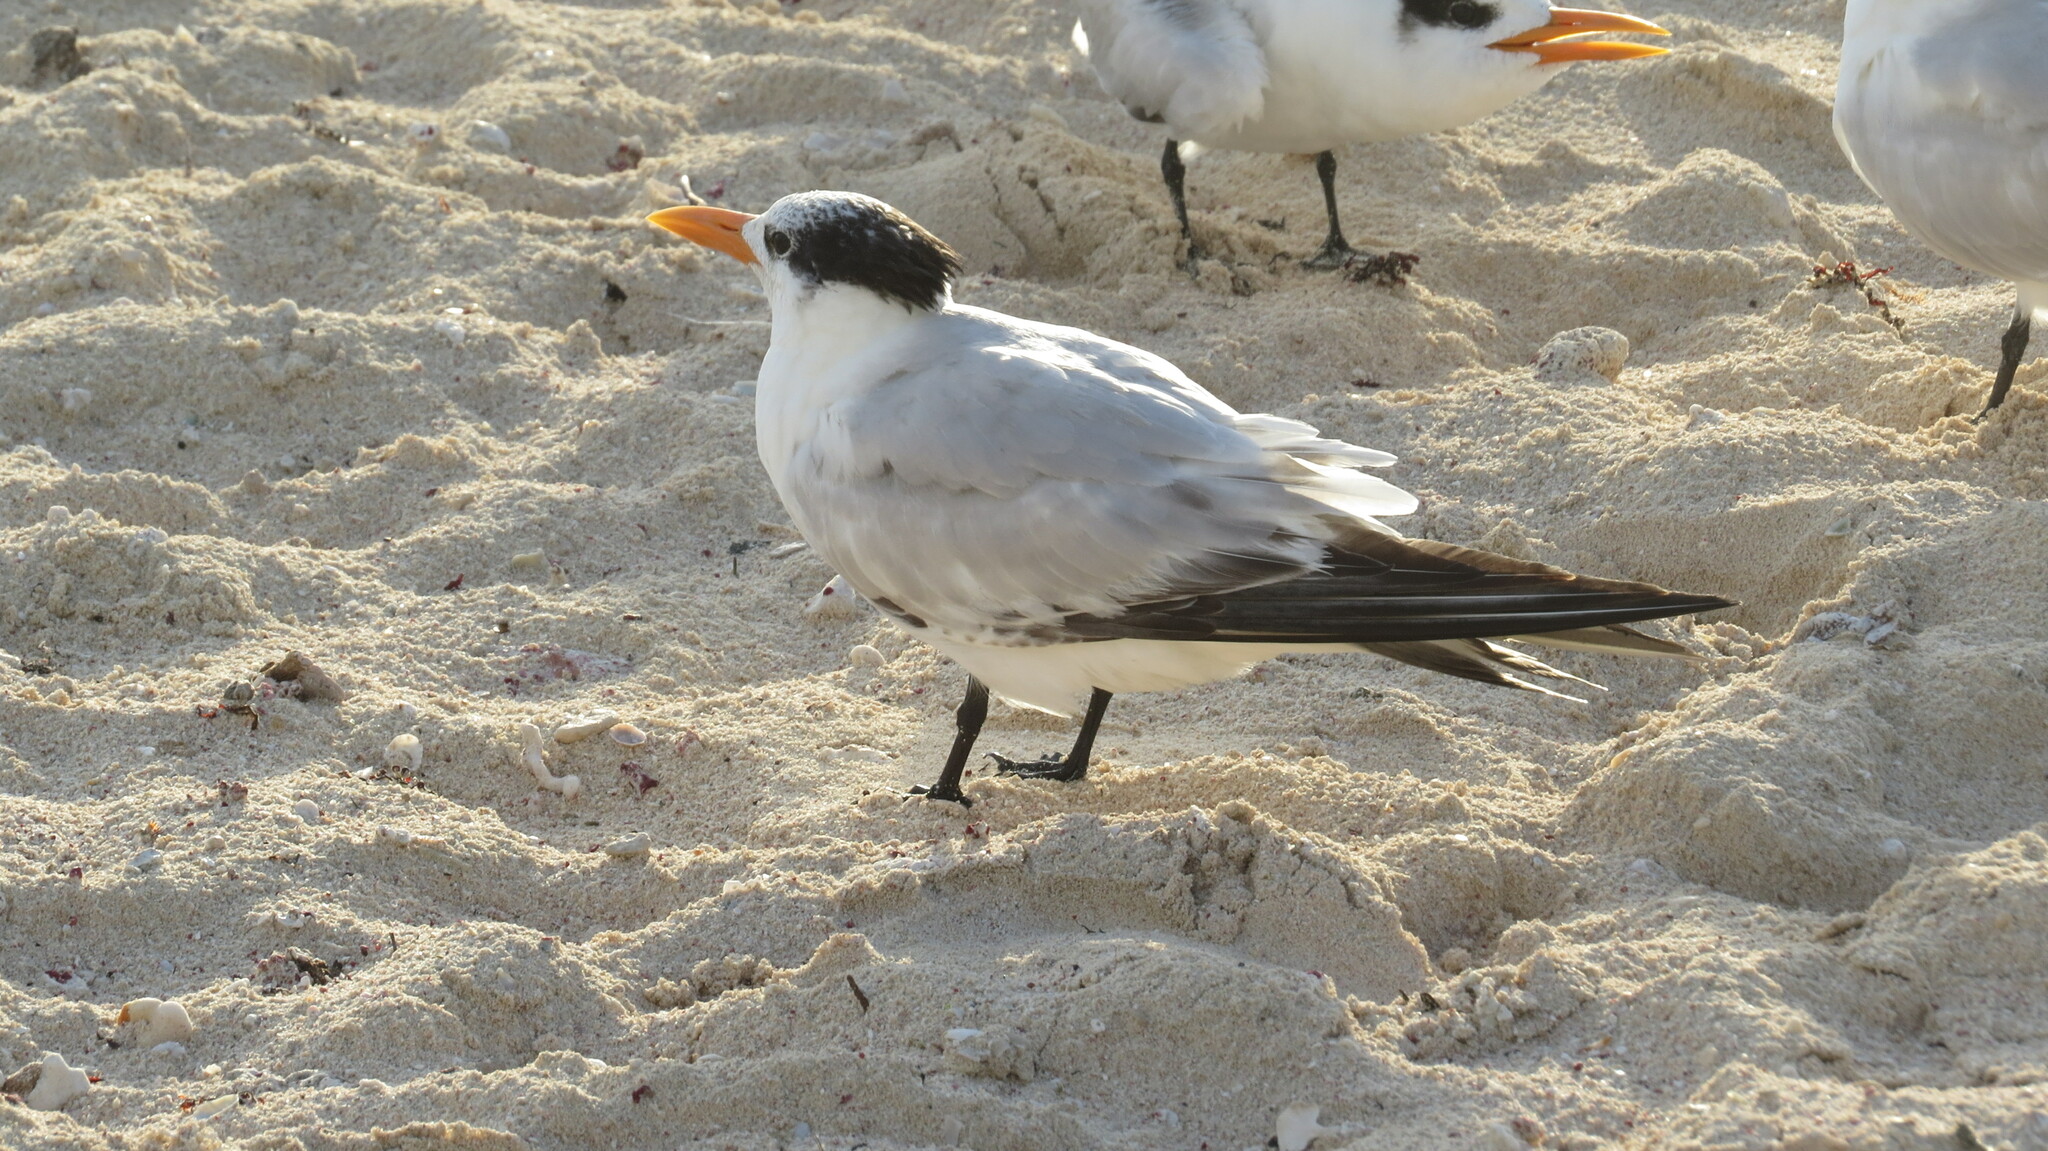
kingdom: Animalia
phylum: Chordata
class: Aves
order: Charadriiformes
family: Laridae
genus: Thalasseus
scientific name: Thalasseus maximus
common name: Royal tern
